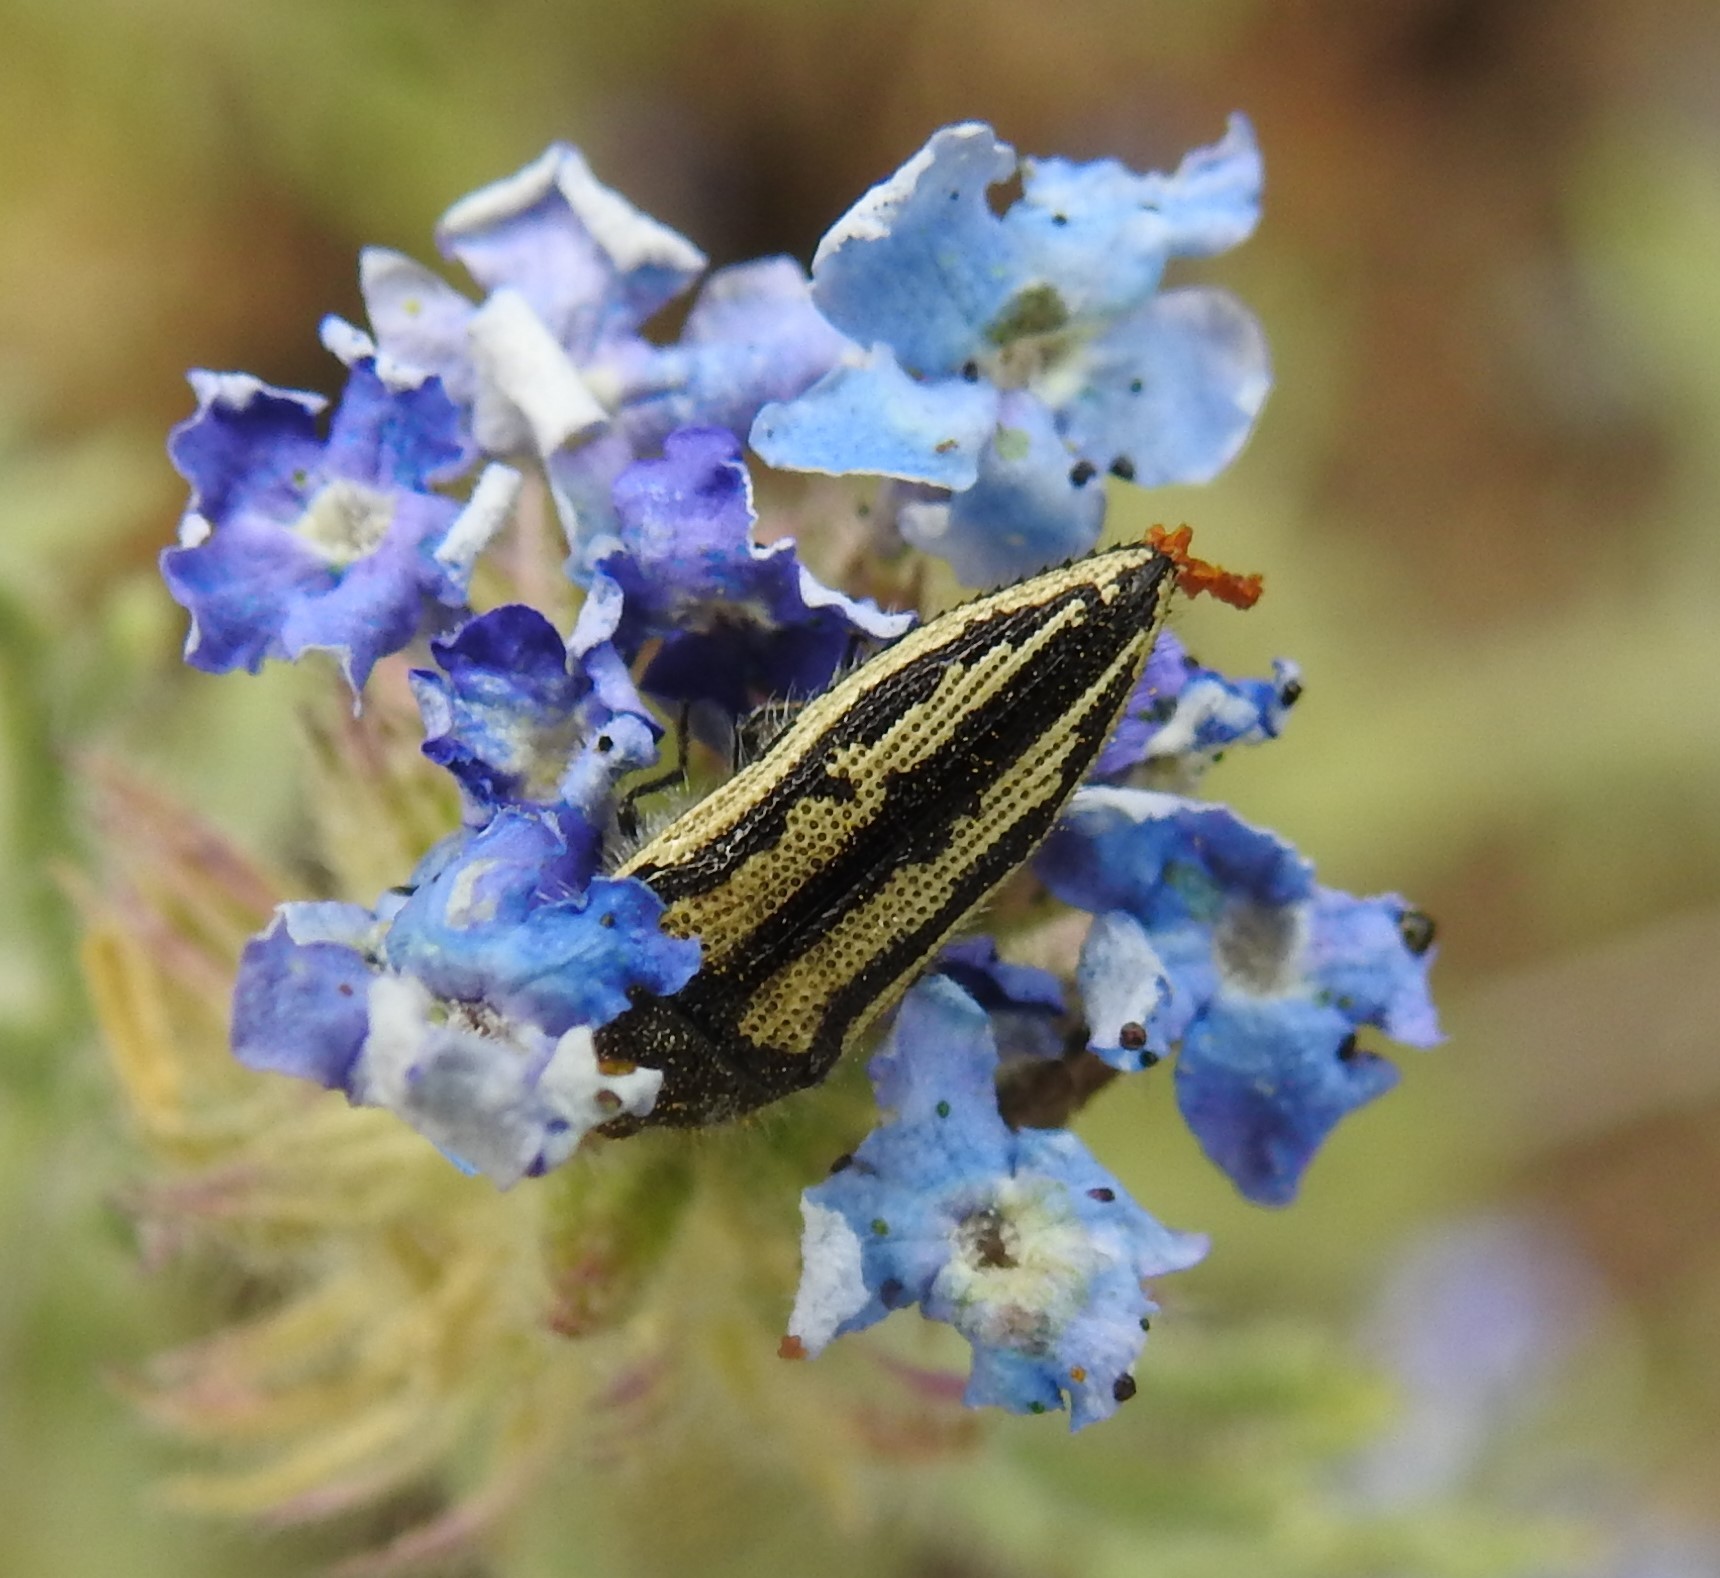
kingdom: Animalia
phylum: Arthropoda
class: Insecta
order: Coleoptera
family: Buprestidae
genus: Acmaeodera
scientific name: Acmaeodera latiflava
